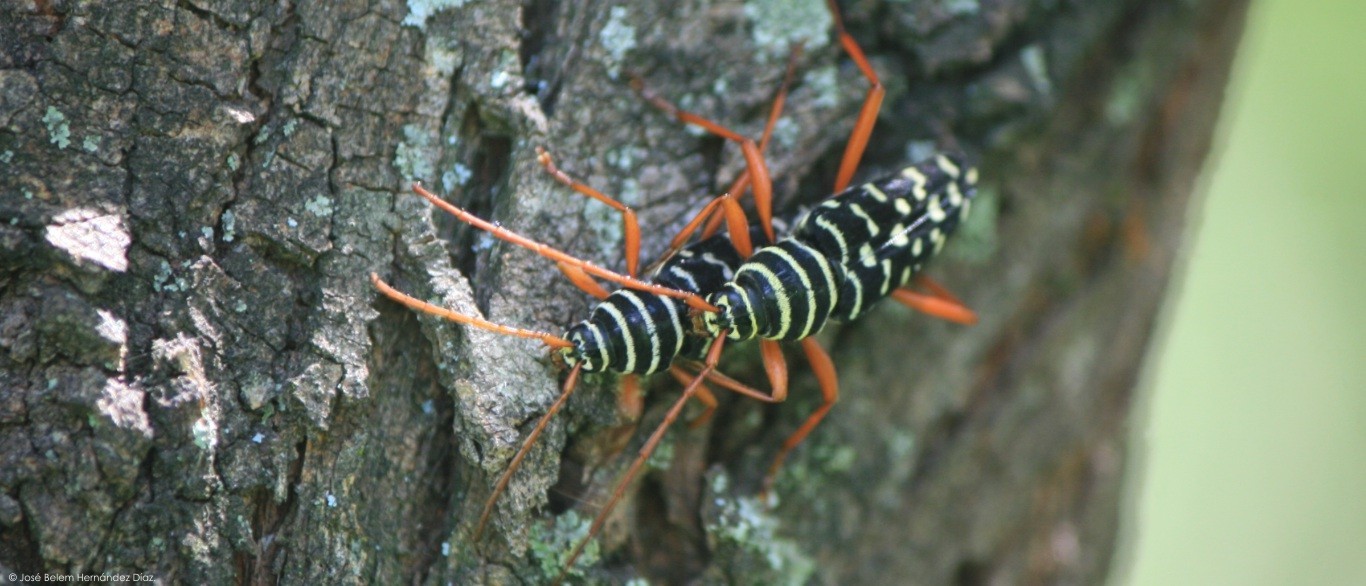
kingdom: Animalia
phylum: Arthropoda
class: Insecta
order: Coleoptera
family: Cerambycidae
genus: Placosternus
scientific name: Placosternus erythropus
